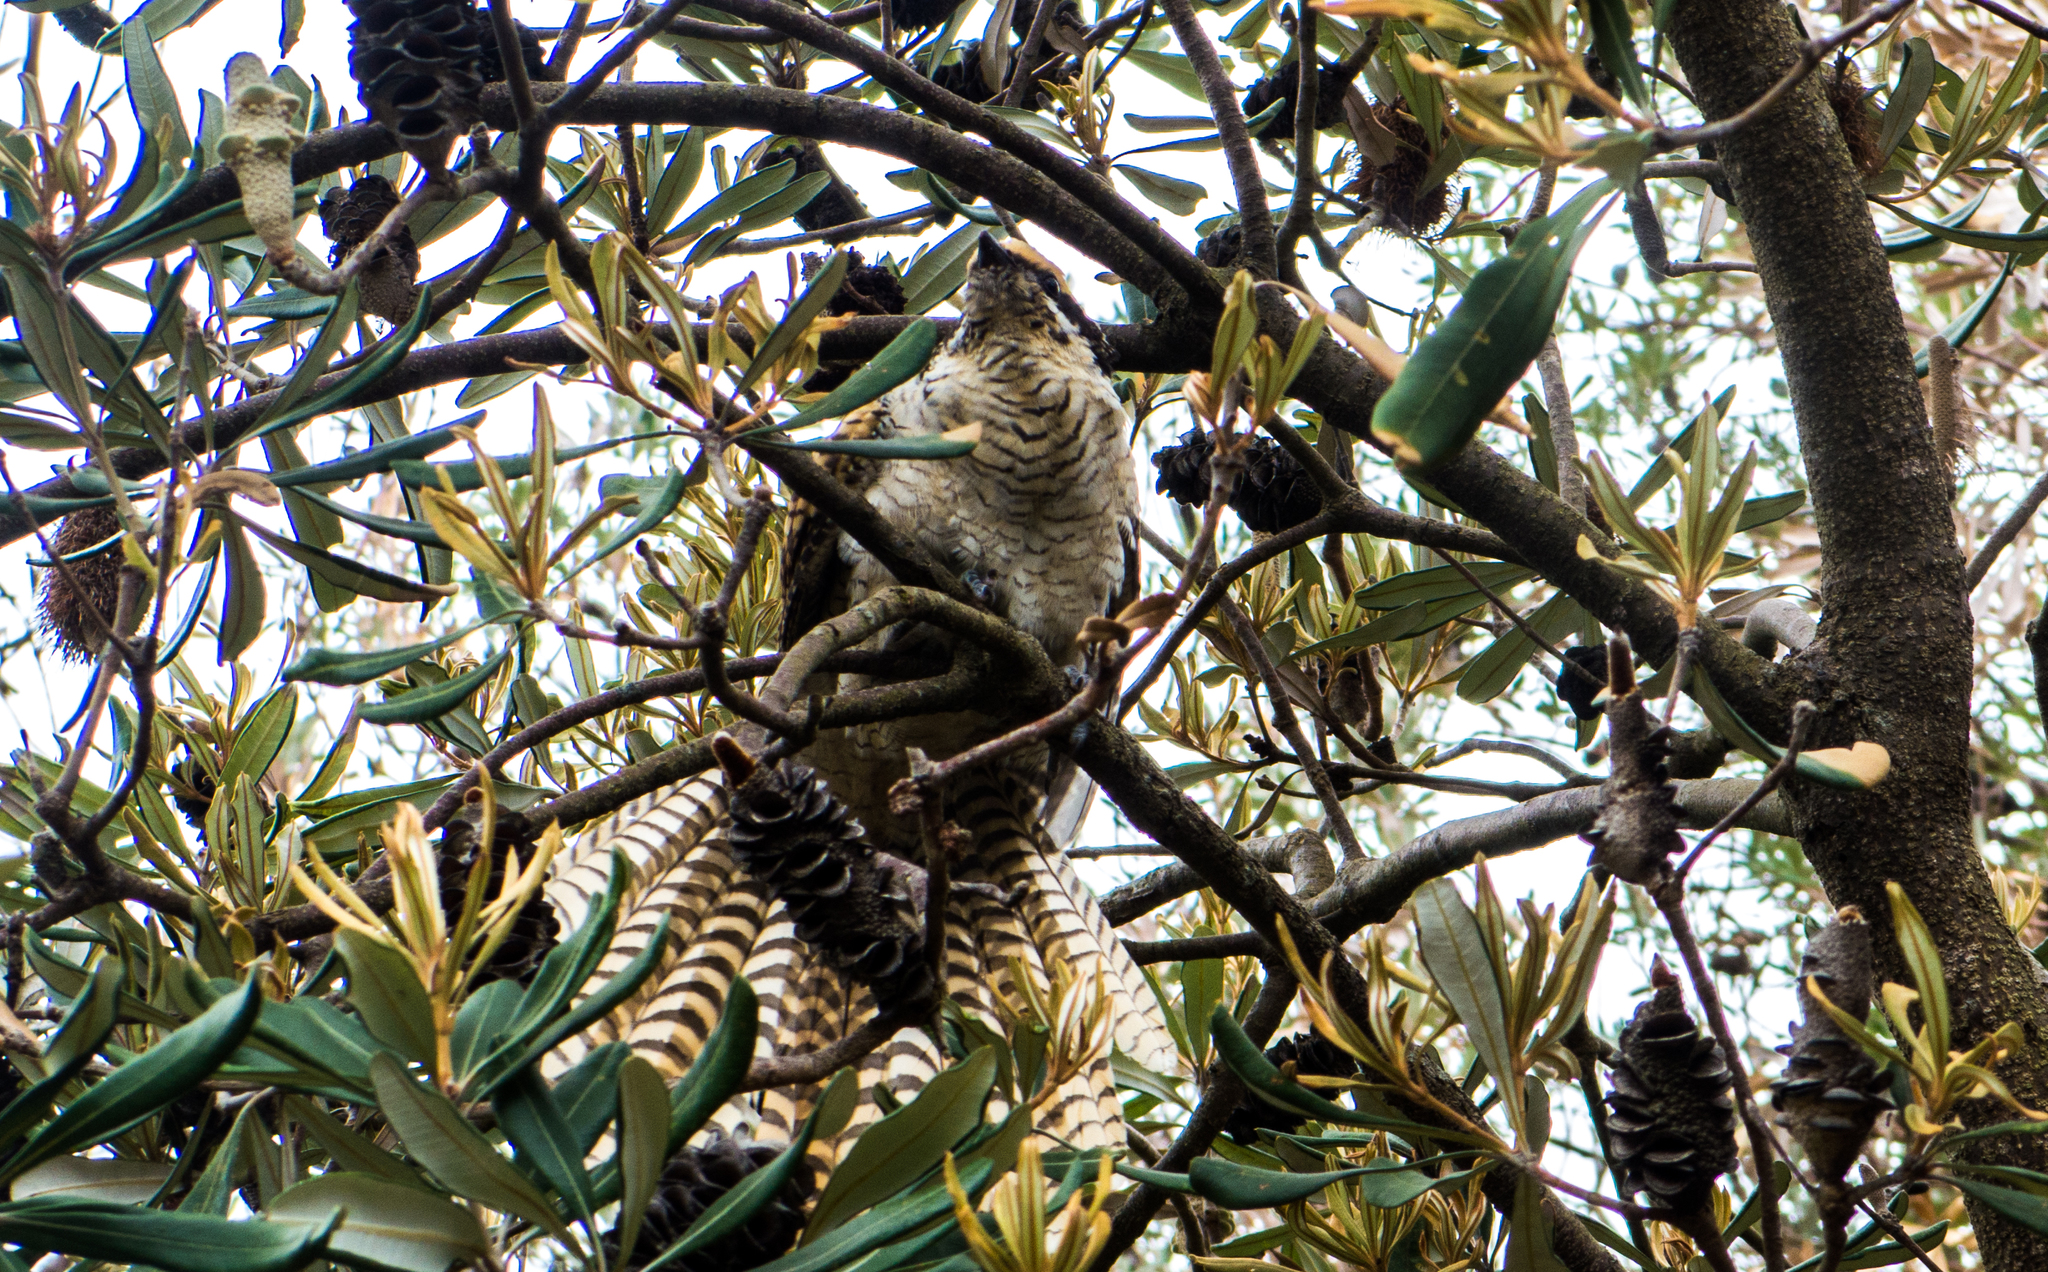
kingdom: Animalia
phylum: Chordata
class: Aves
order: Cuculiformes
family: Cuculidae
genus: Eudynamys
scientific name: Eudynamys orientalis
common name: Pacific koel
